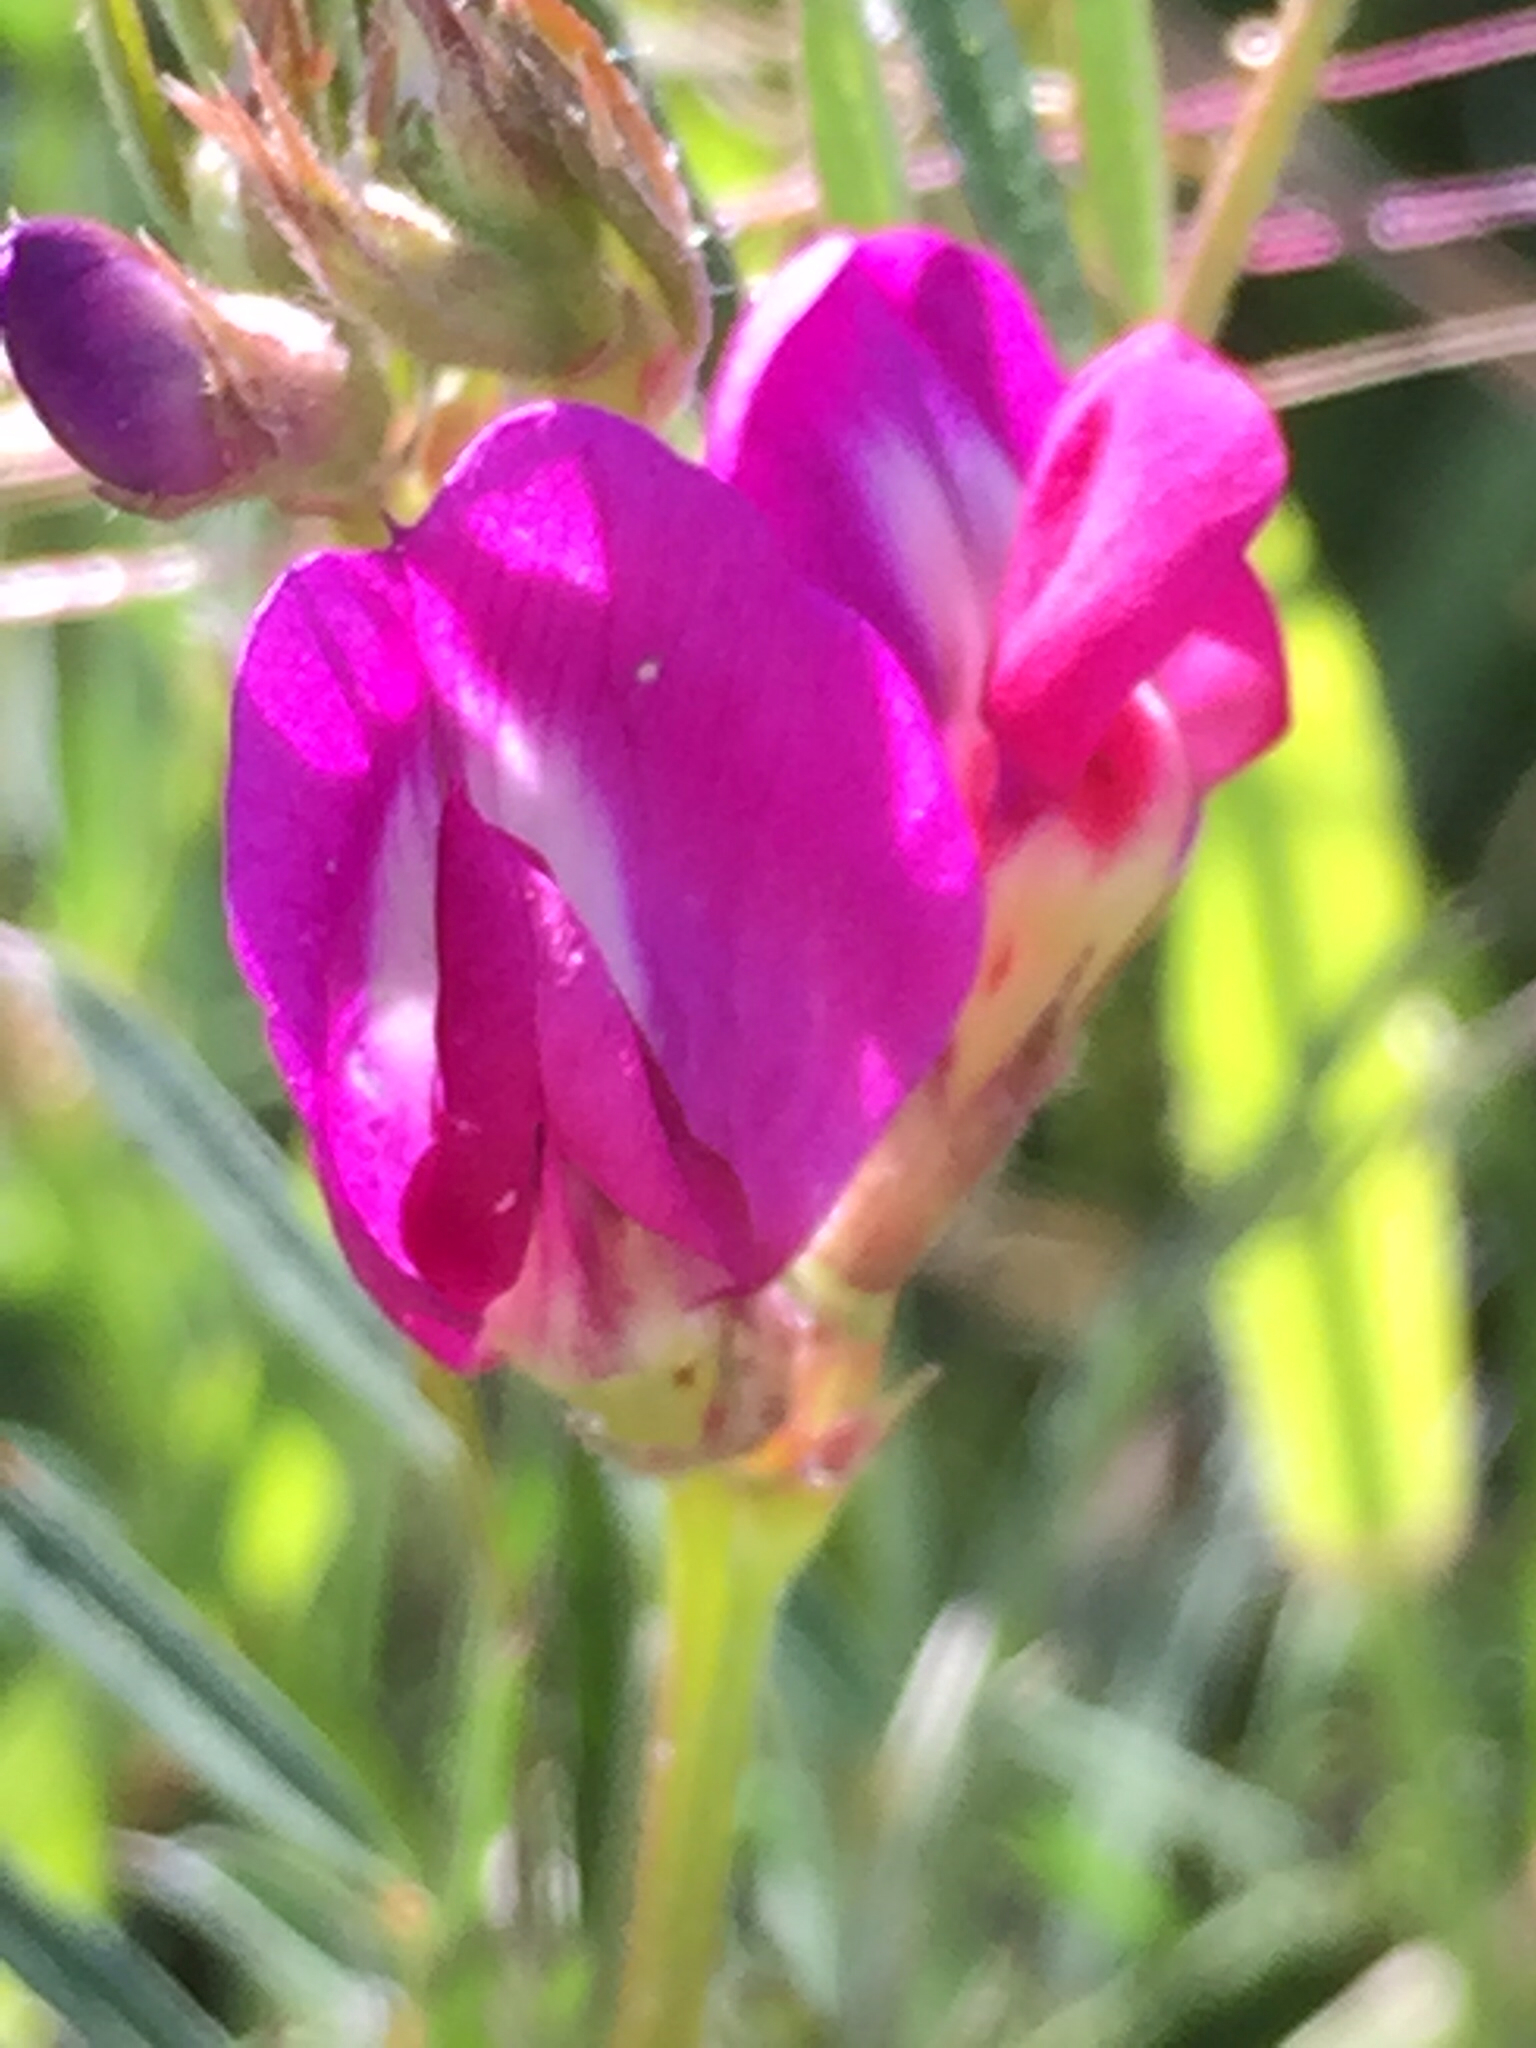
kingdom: Plantae
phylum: Tracheophyta
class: Magnoliopsida
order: Fabales
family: Fabaceae
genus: Vicia
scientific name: Vicia sativa
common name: Garden vetch
